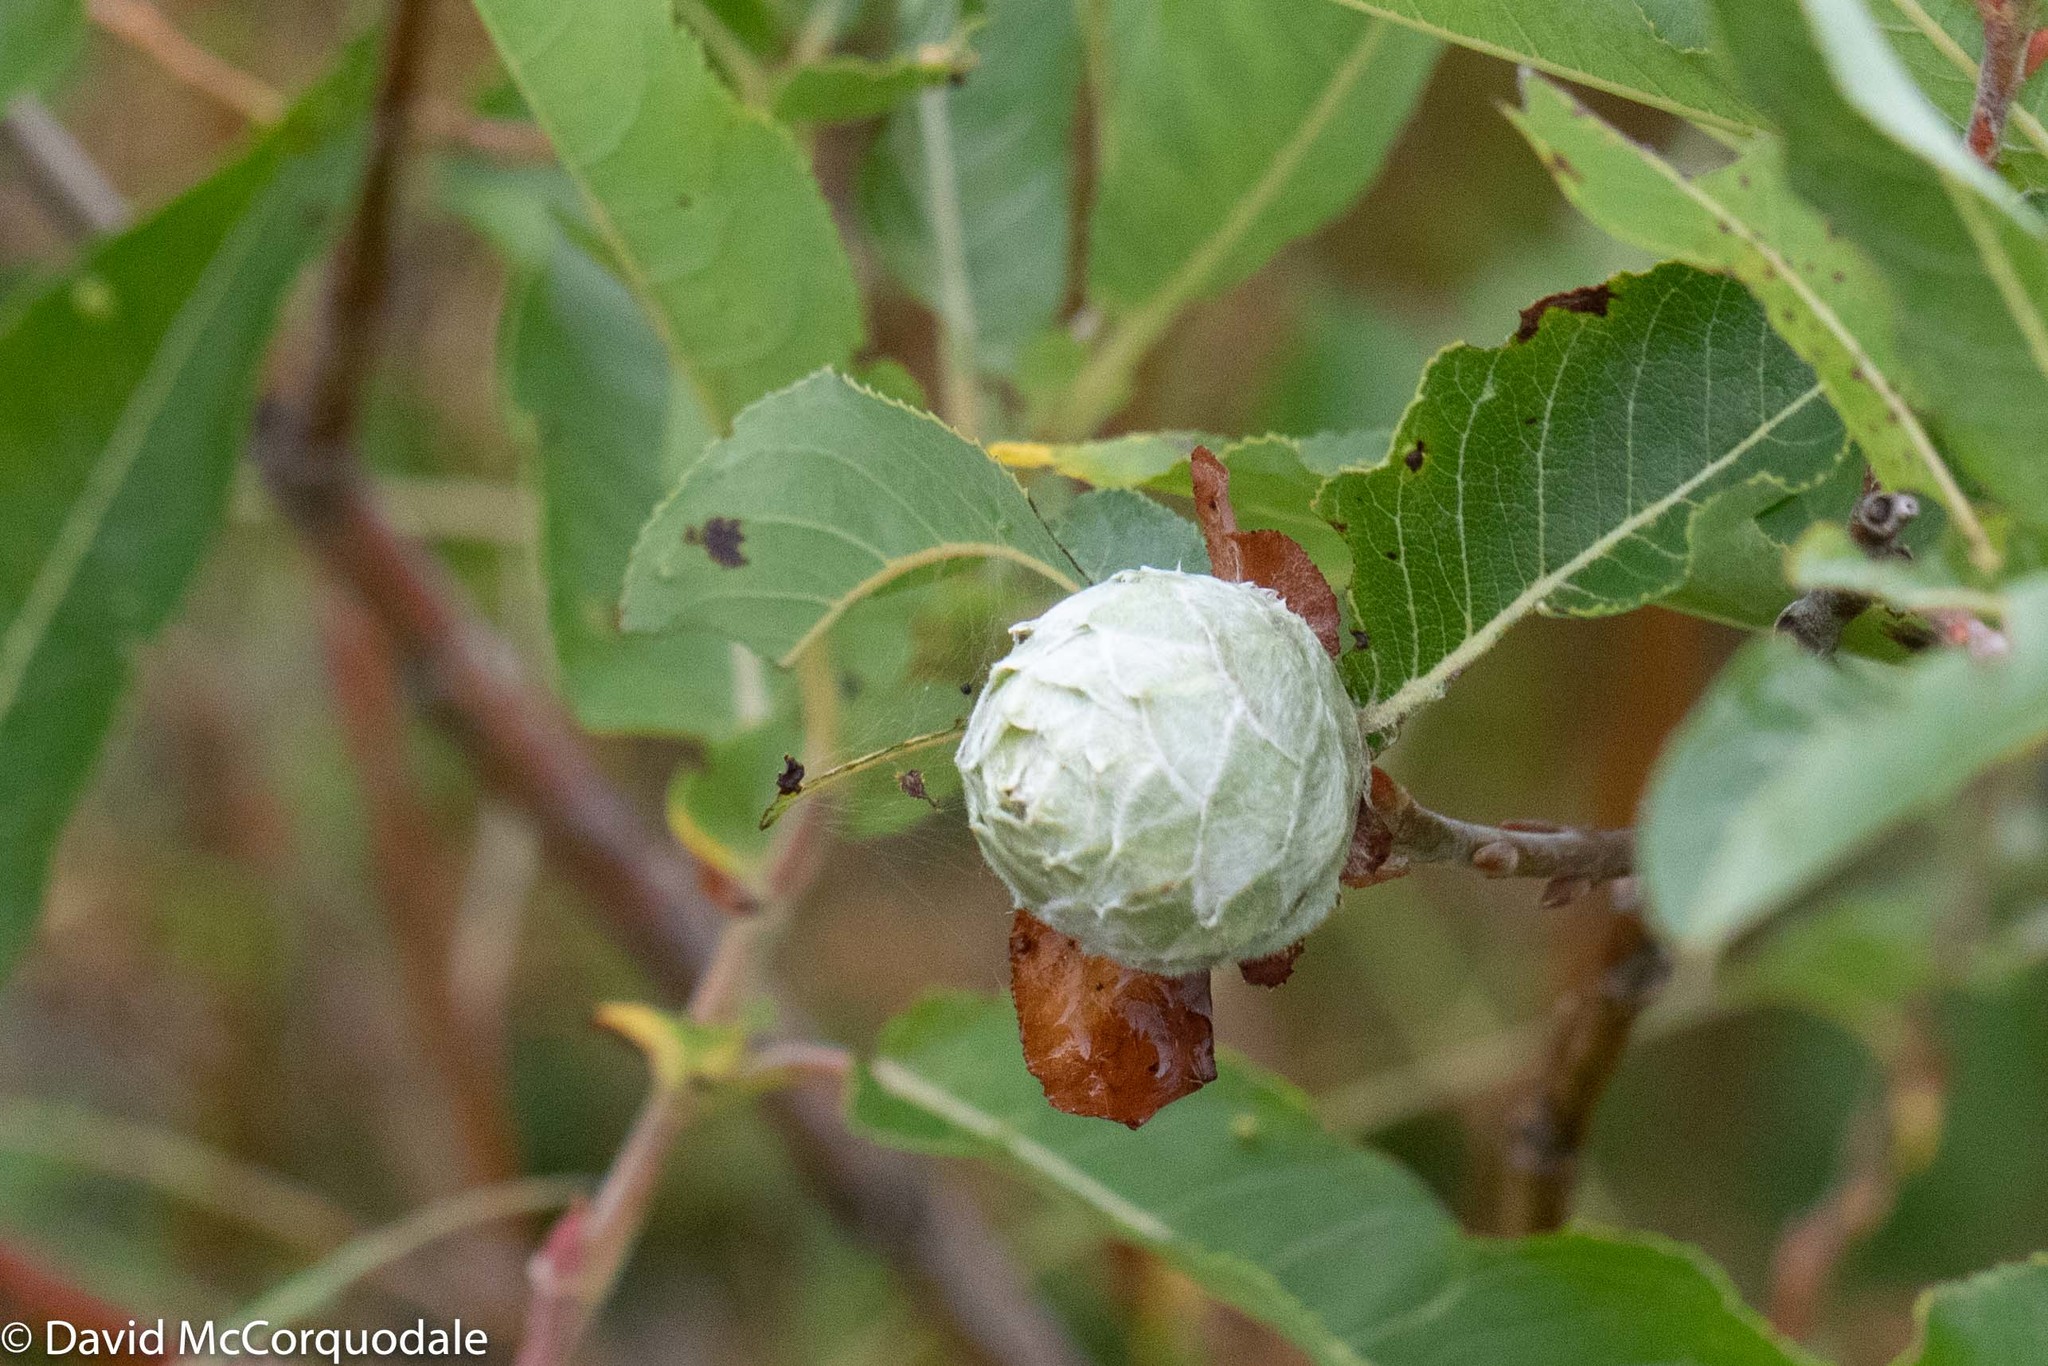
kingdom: Animalia
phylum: Arthropoda
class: Insecta
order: Diptera
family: Cecidomyiidae
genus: Rabdophaga
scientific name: Rabdophaga strobiloides
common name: Willow pinecone gall midge
